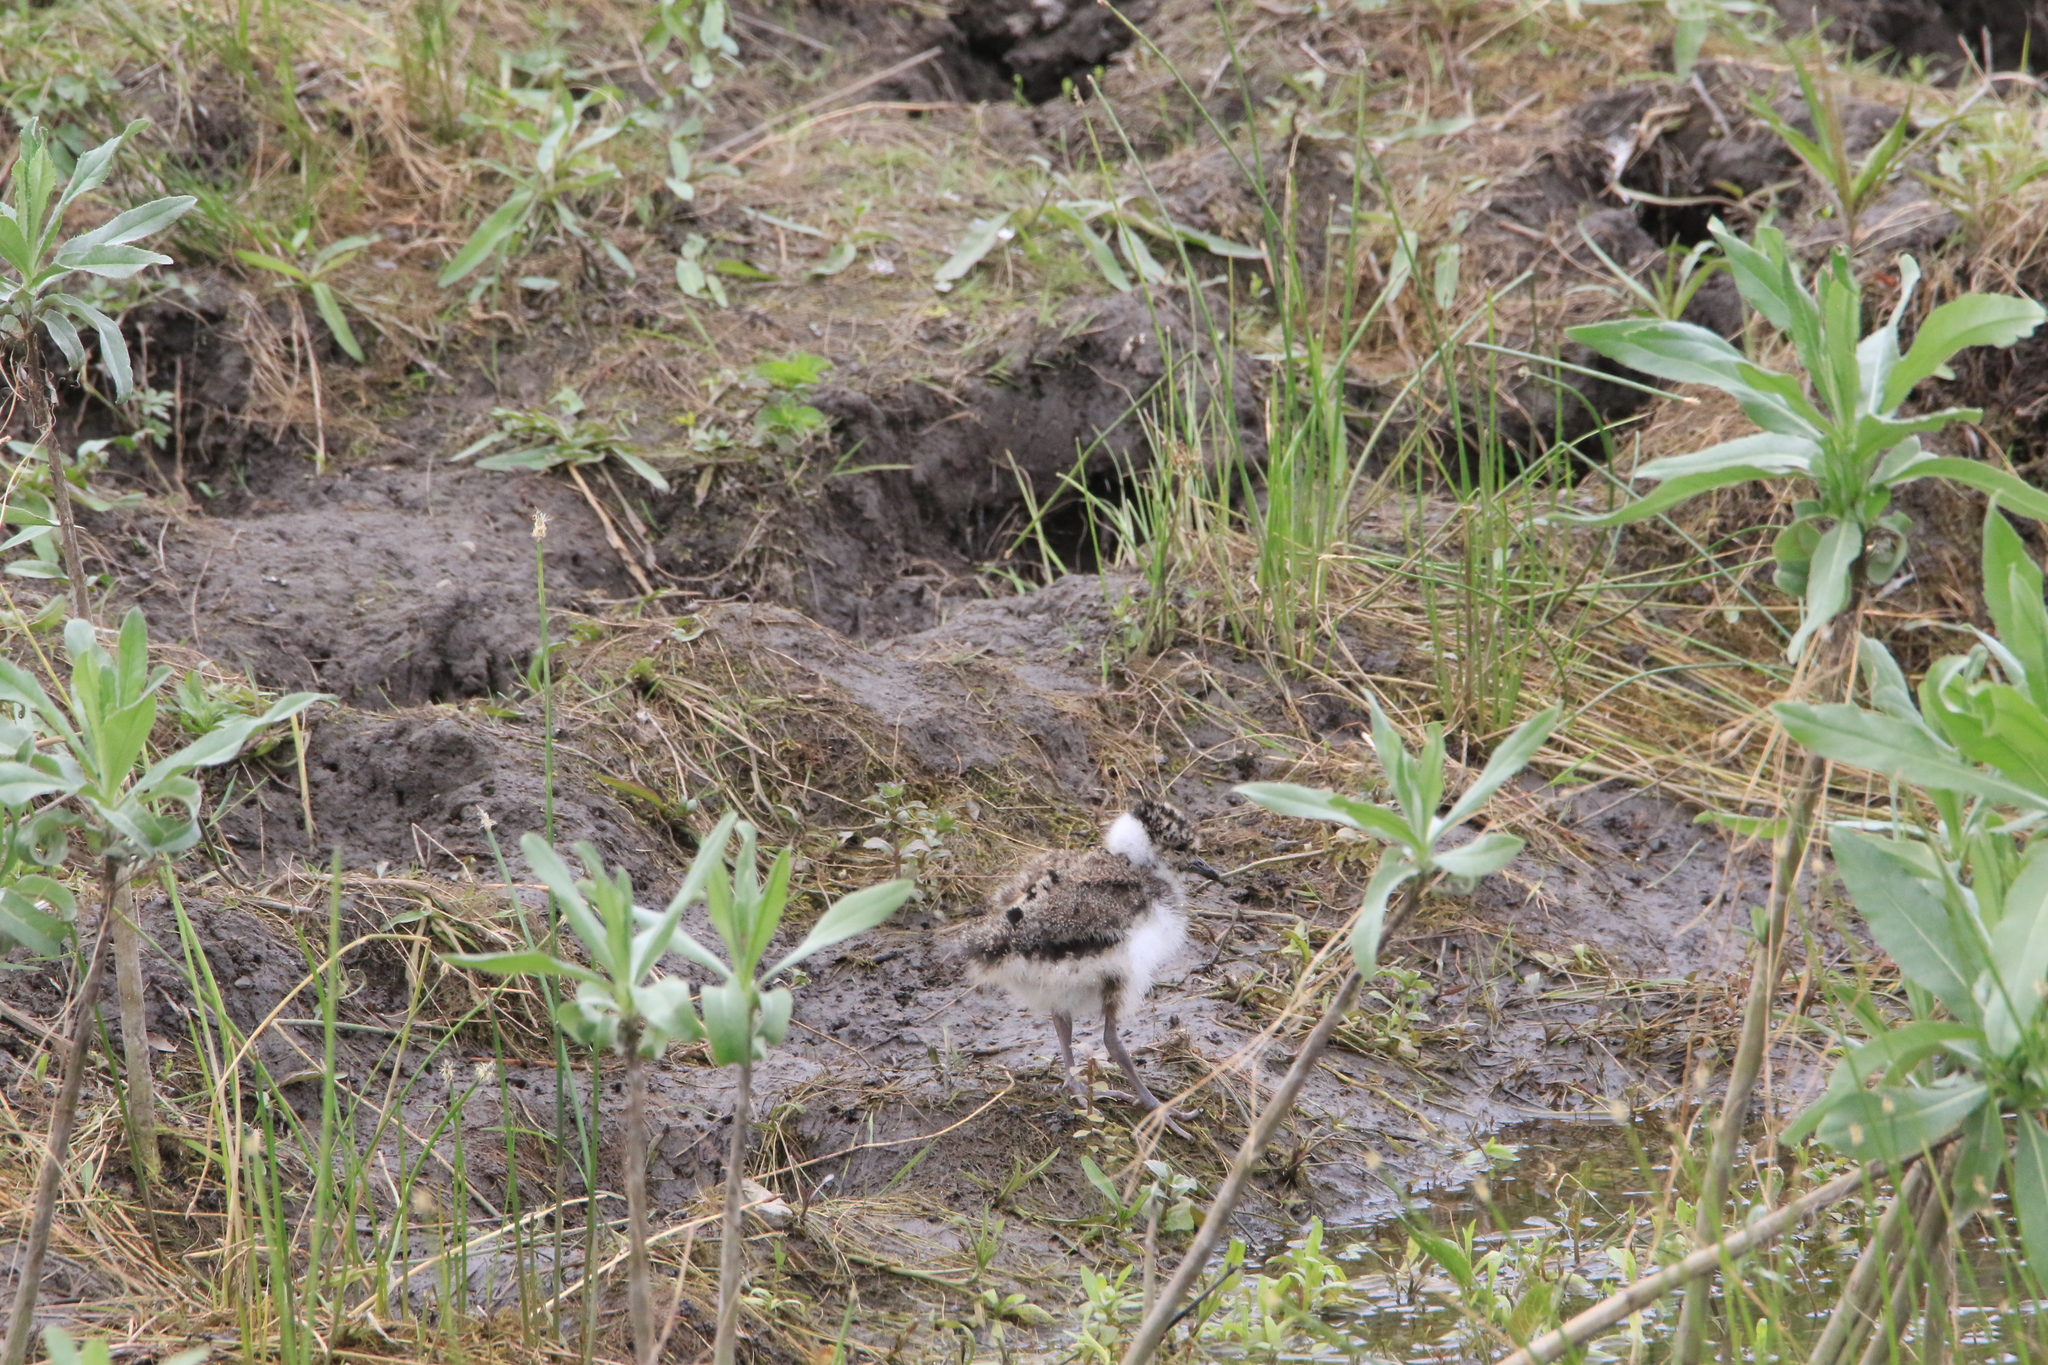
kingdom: Animalia
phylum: Chordata
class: Aves
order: Charadriiformes
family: Charadriidae
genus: Vanellus
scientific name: Vanellus vanellus
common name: Northern lapwing
